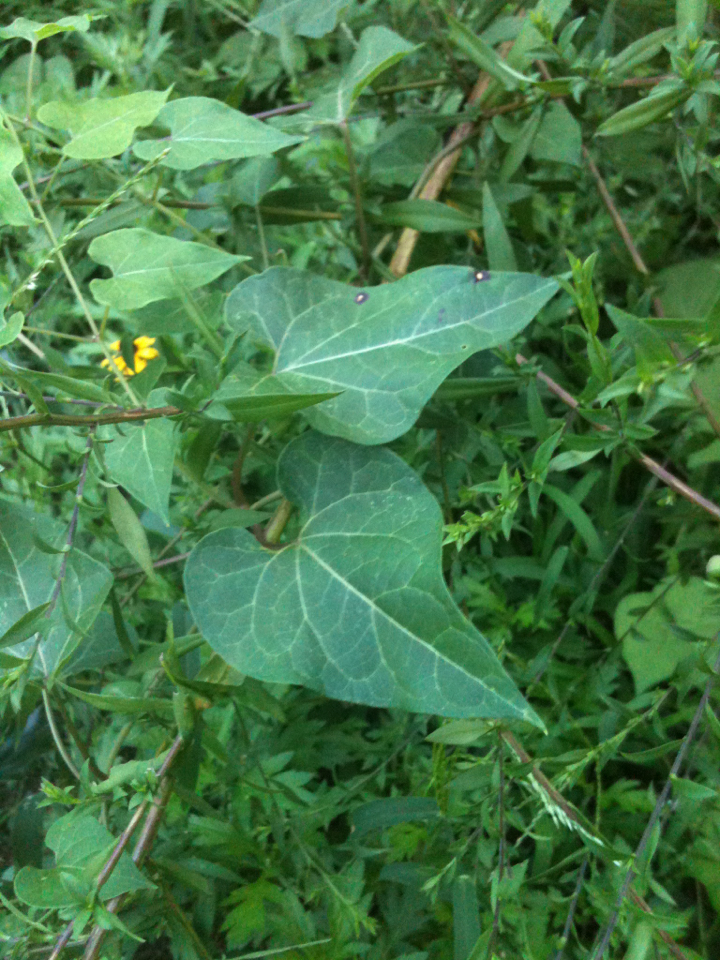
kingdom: Plantae
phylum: Tracheophyta
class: Magnoliopsida
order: Gentianales
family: Apocynaceae
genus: Cynanchum
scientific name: Cynanchum laeve
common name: Sandvine
